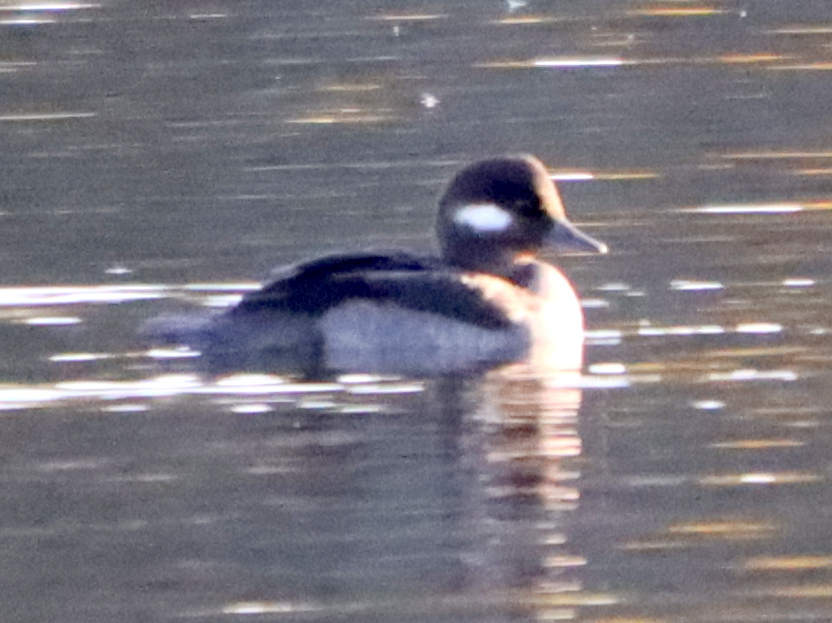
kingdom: Animalia
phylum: Chordata
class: Aves
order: Anseriformes
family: Anatidae
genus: Bucephala
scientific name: Bucephala albeola
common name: Bufflehead
